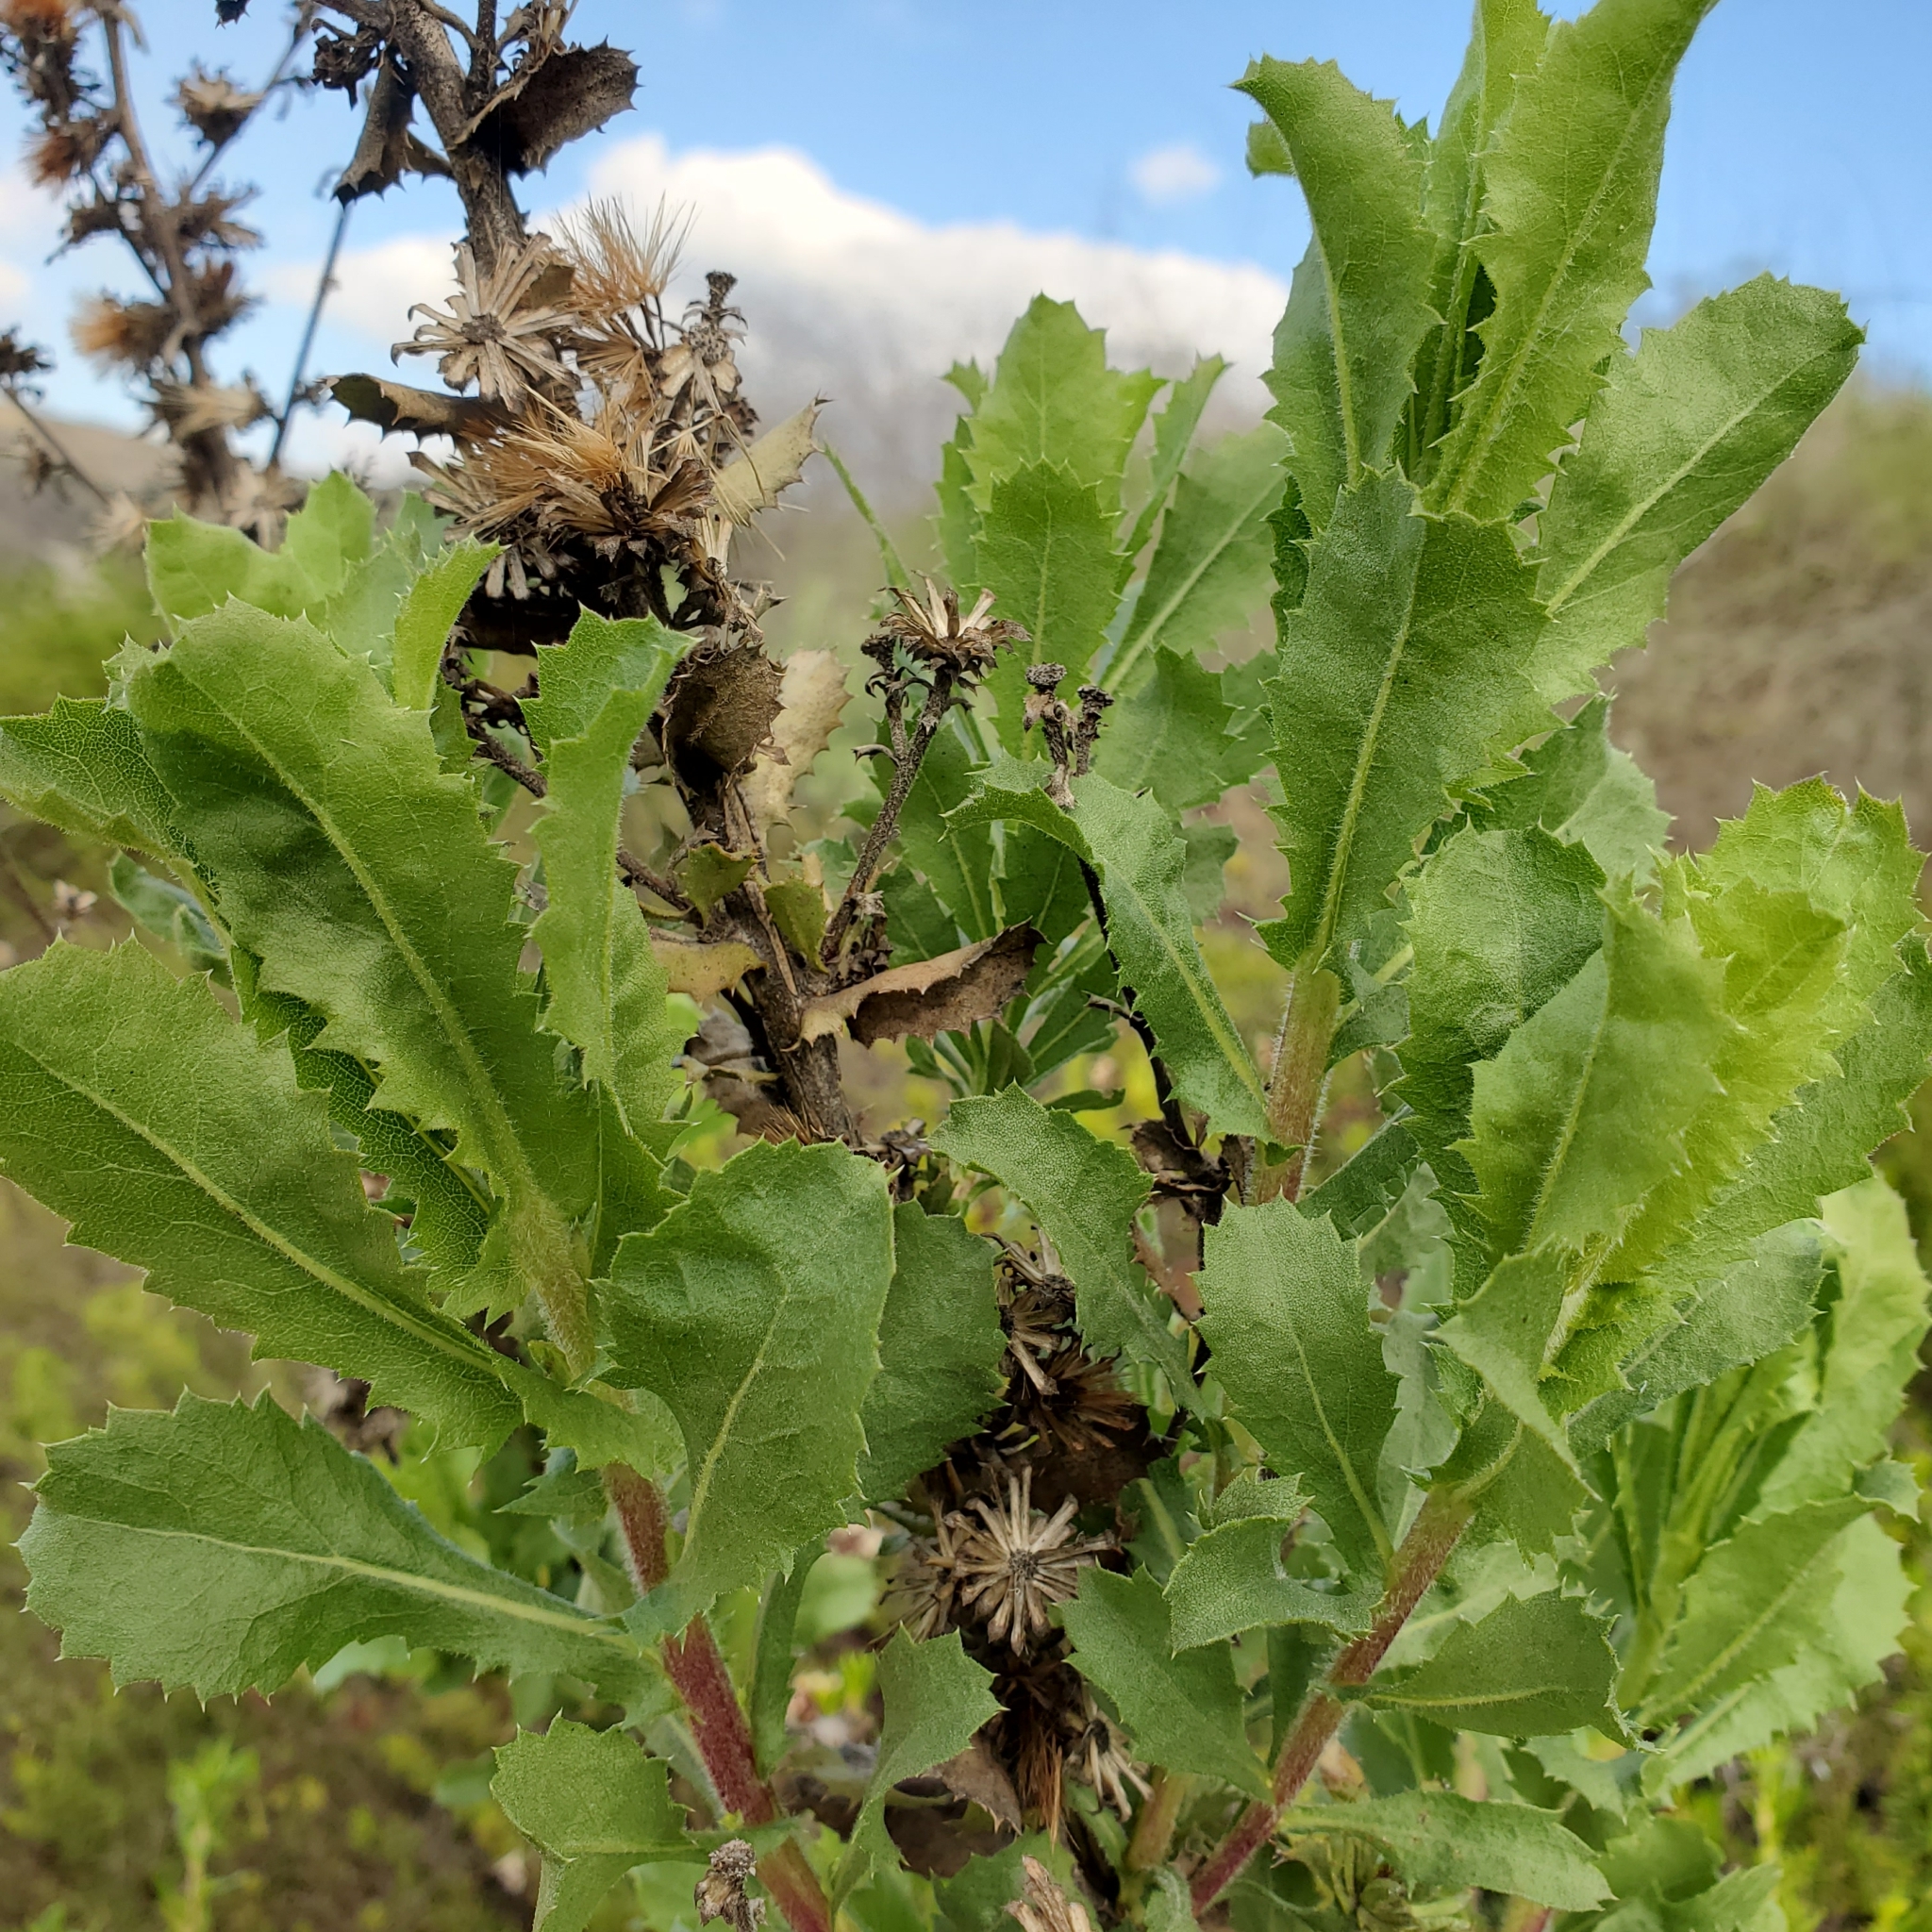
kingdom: Plantae
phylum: Tracheophyta
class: Magnoliopsida
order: Asterales
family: Asteraceae
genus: Hazardia
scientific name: Hazardia squarrosa
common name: Saw-tooth goldenbush
